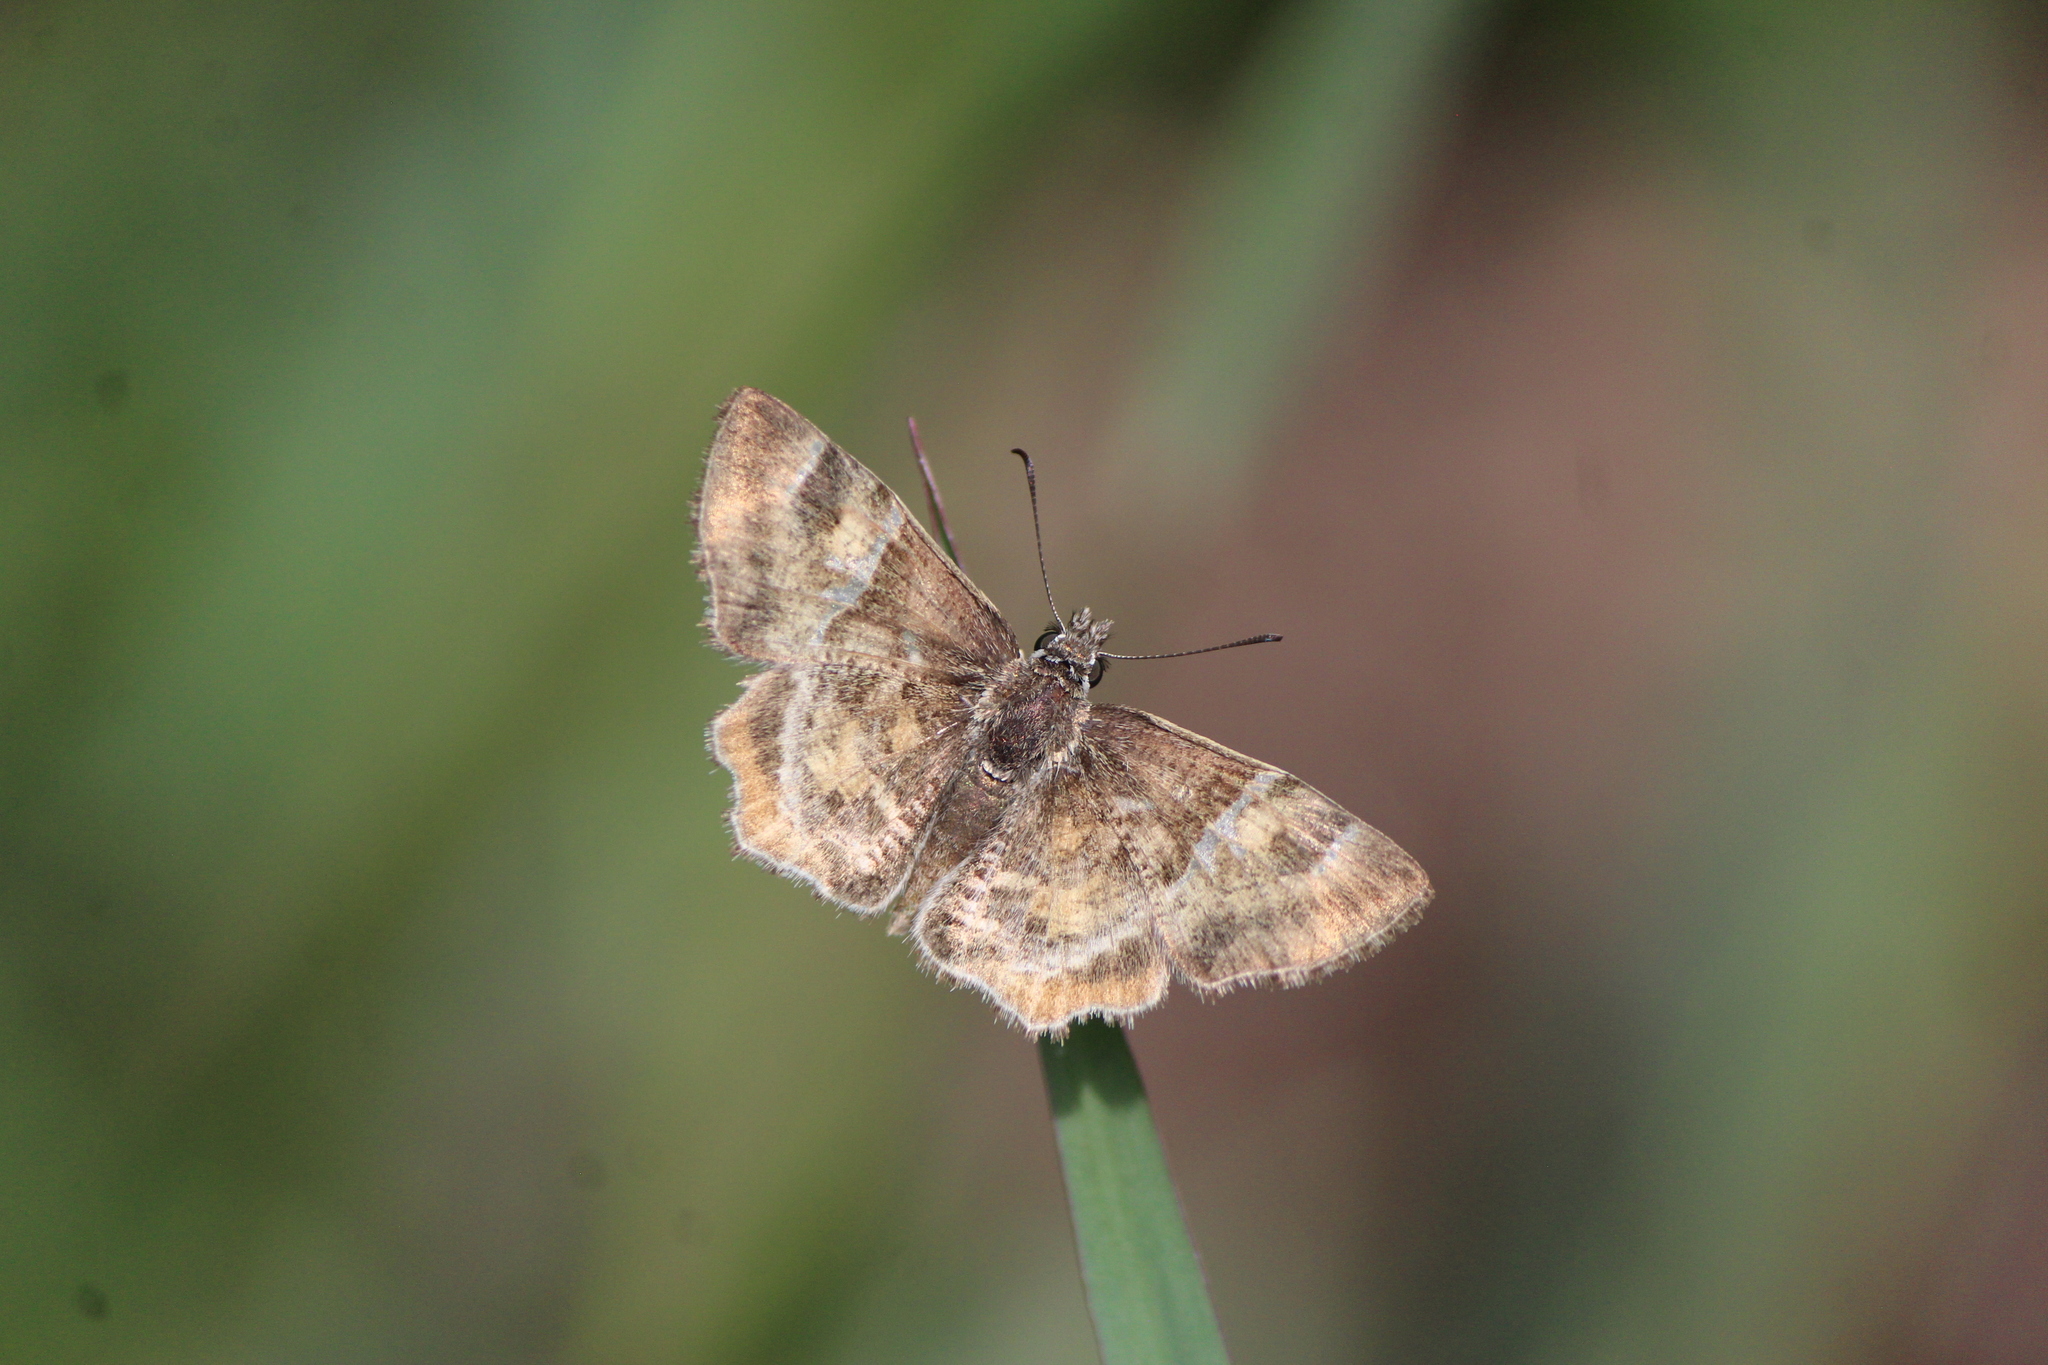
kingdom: Animalia
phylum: Arthropoda
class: Insecta
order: Lepidoptera
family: Hesperiidae
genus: Systasea
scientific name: Systasea pulverulenta
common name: Texas powdered skipper
